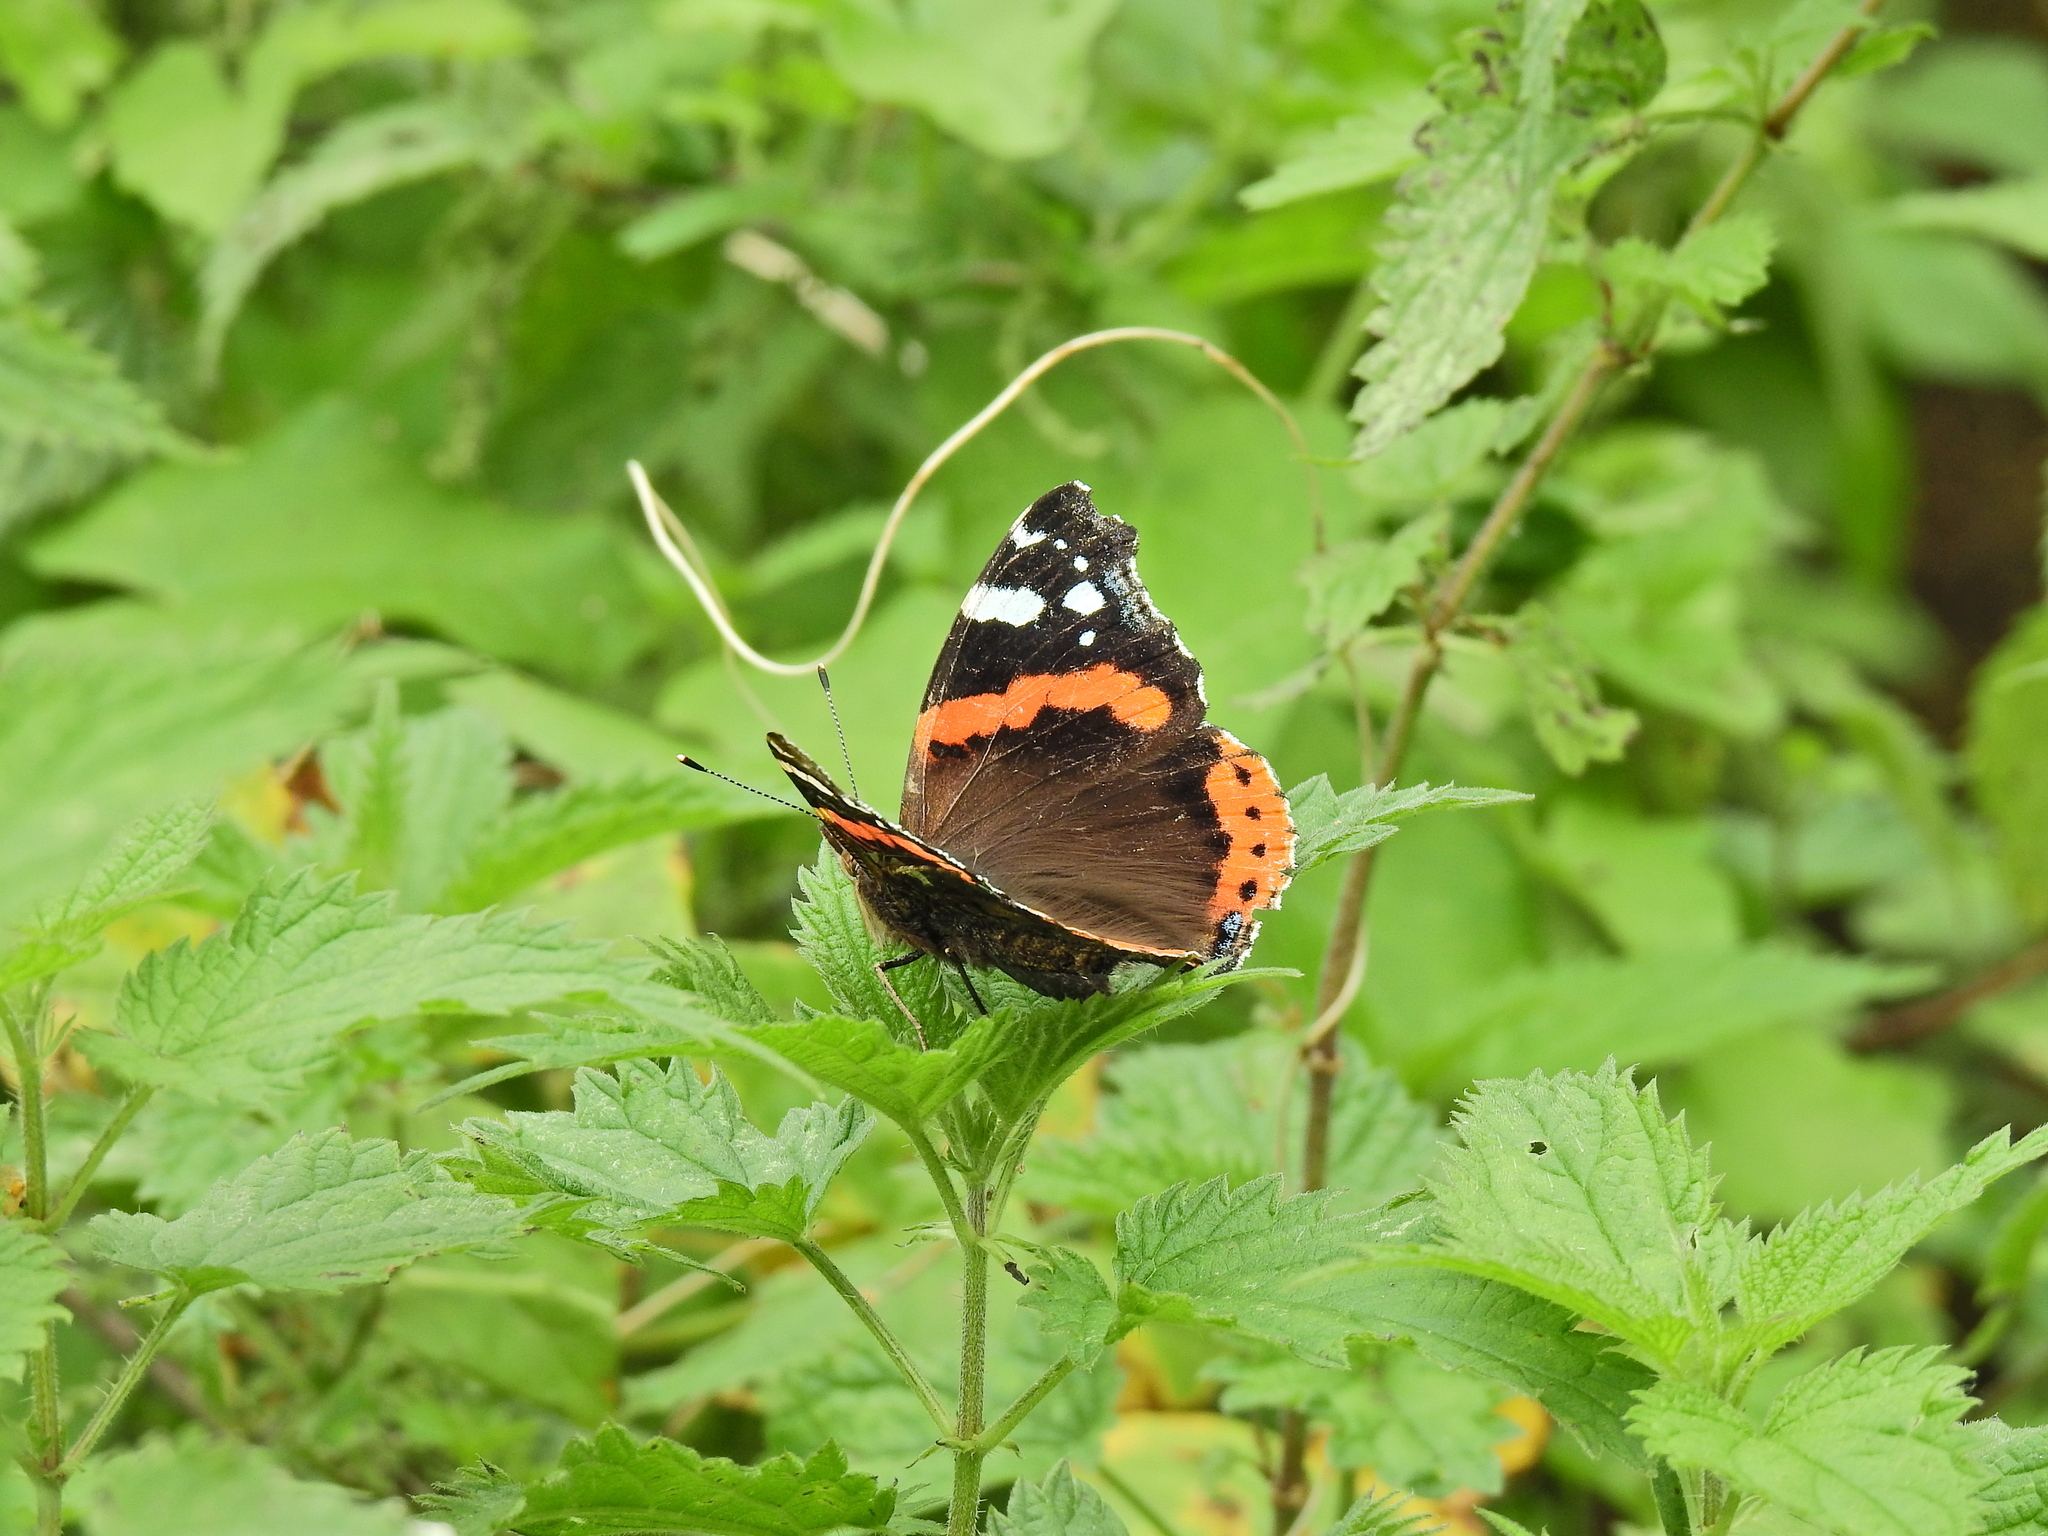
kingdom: Animalia
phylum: Arthropoda
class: Insecta
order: Lepidoptera
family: Nymphalidae
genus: Vanessa
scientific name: Vanessa atalanta
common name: Red admiral
